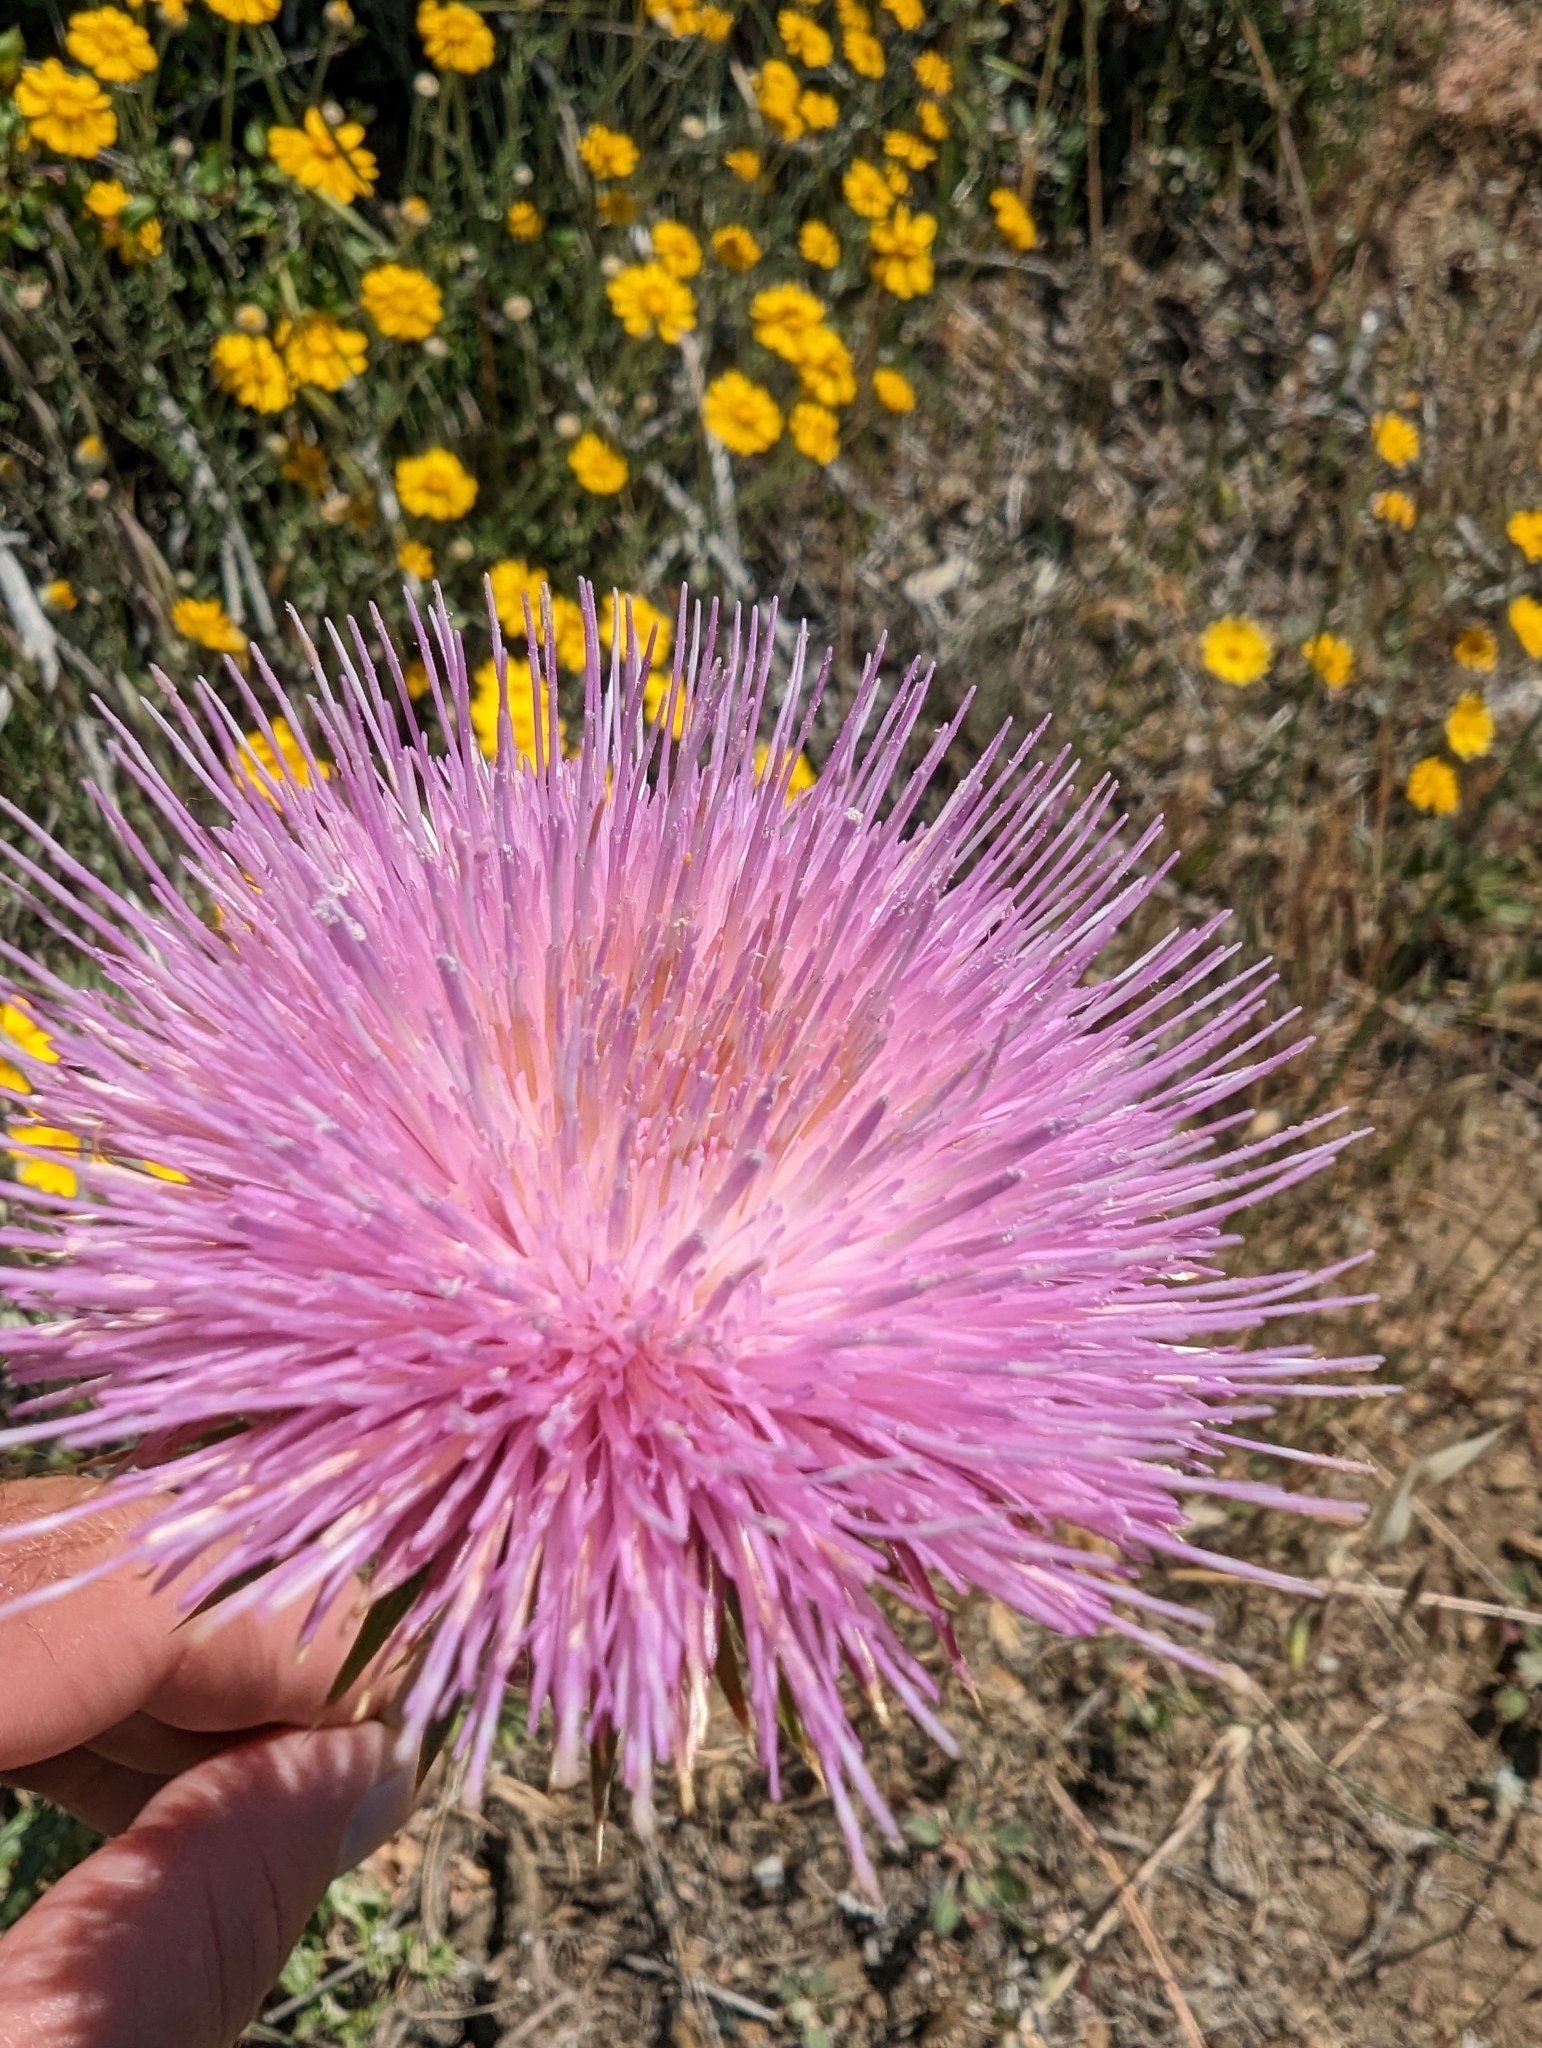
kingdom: Plantae
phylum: Tracheophyta
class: Magnoliopsida
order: Asterales
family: Asteraceae
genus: Cirsium
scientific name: Cirsium occidentale
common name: Western thistle
